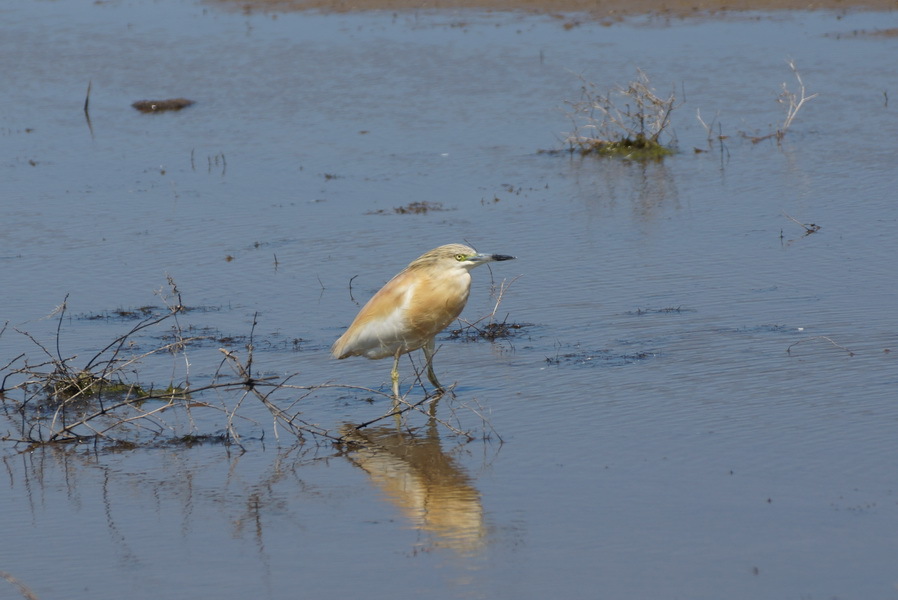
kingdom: Animalia
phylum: Chordata
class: Aves
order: Pelecaniformes
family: Ardeidae
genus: Ardeola
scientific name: Ardeola ralloides
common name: Squacco heron
